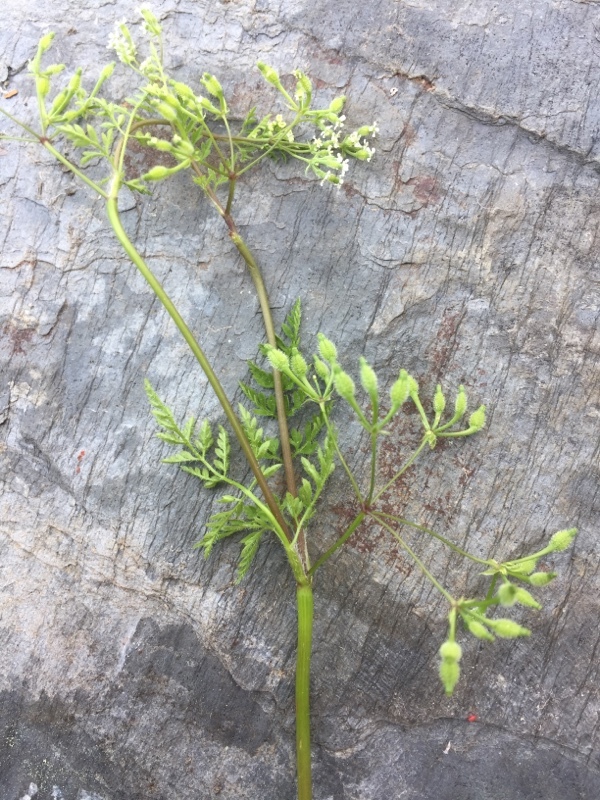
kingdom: Plantae
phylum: Tracheophyta
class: Magnoliopsida
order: Apiales
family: Apiaceae
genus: Anthriscus
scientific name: Anthriscus caucalis
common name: Bur chervil
